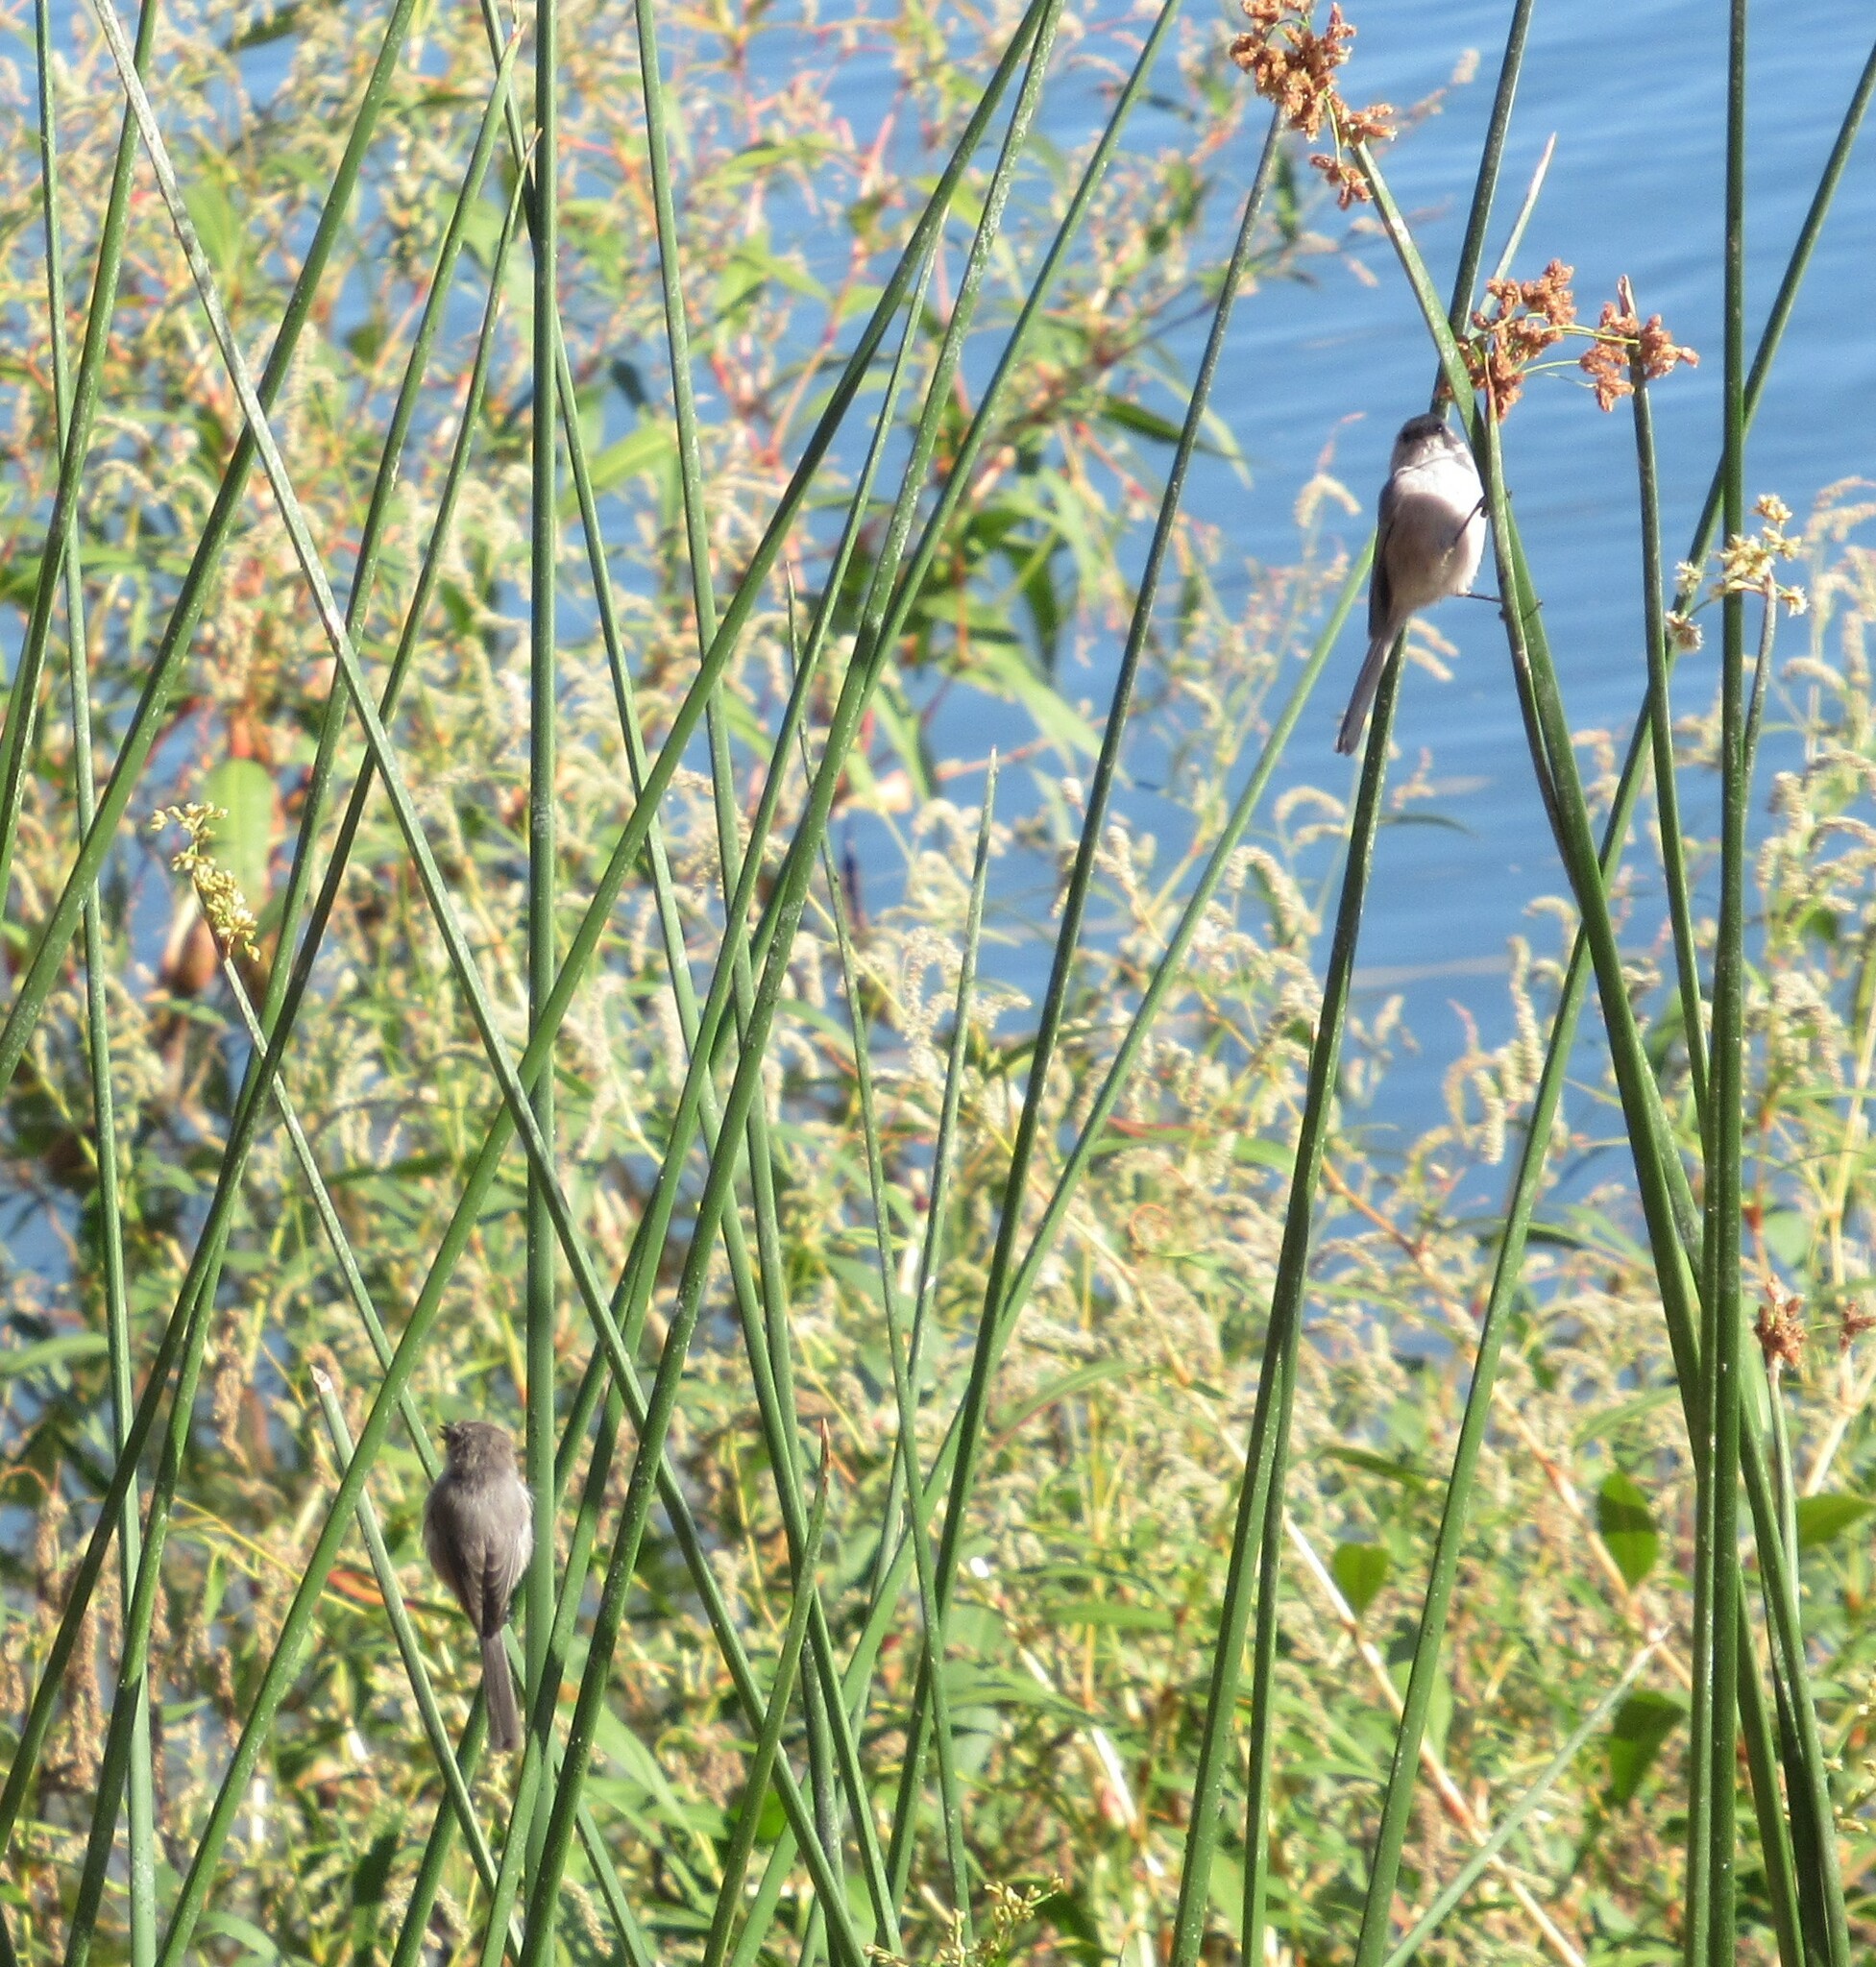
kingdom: Animalia
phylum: Chordata
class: Aves
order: Passeriformes
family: Aegithalidae
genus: Psaltriparus
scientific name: Psaltriparus minimus
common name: American bushtit
